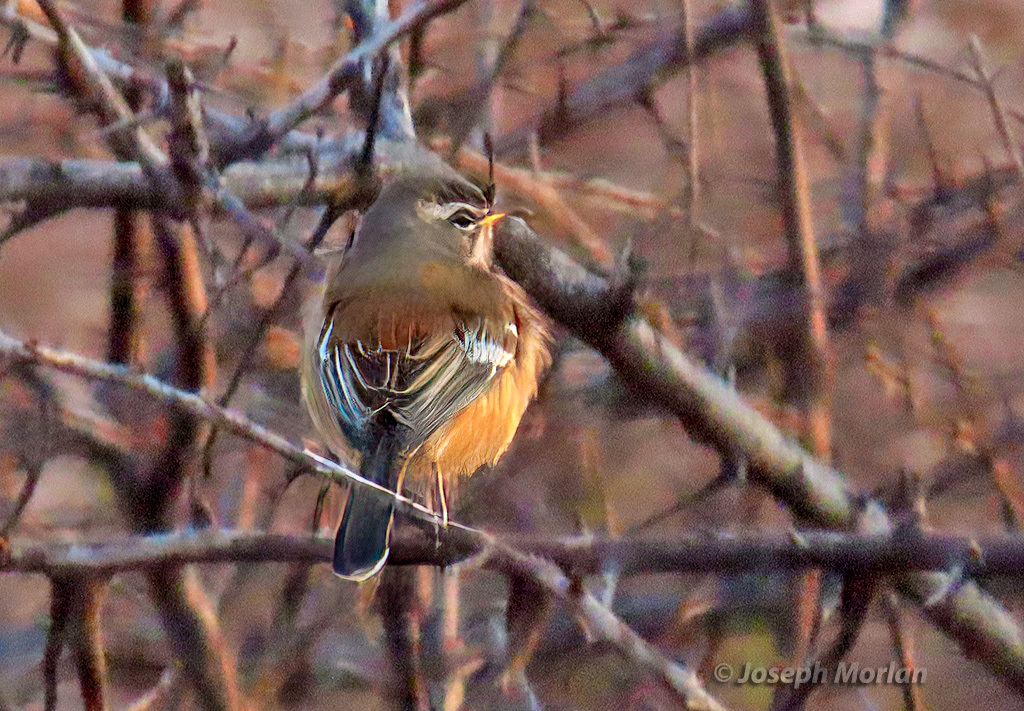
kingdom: Animalia
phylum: Chordata
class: Aves
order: Passeriformes
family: Muscicapidae
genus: Erythropygia
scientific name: Erythropygia leucophrys
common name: White-browed scrub robin
